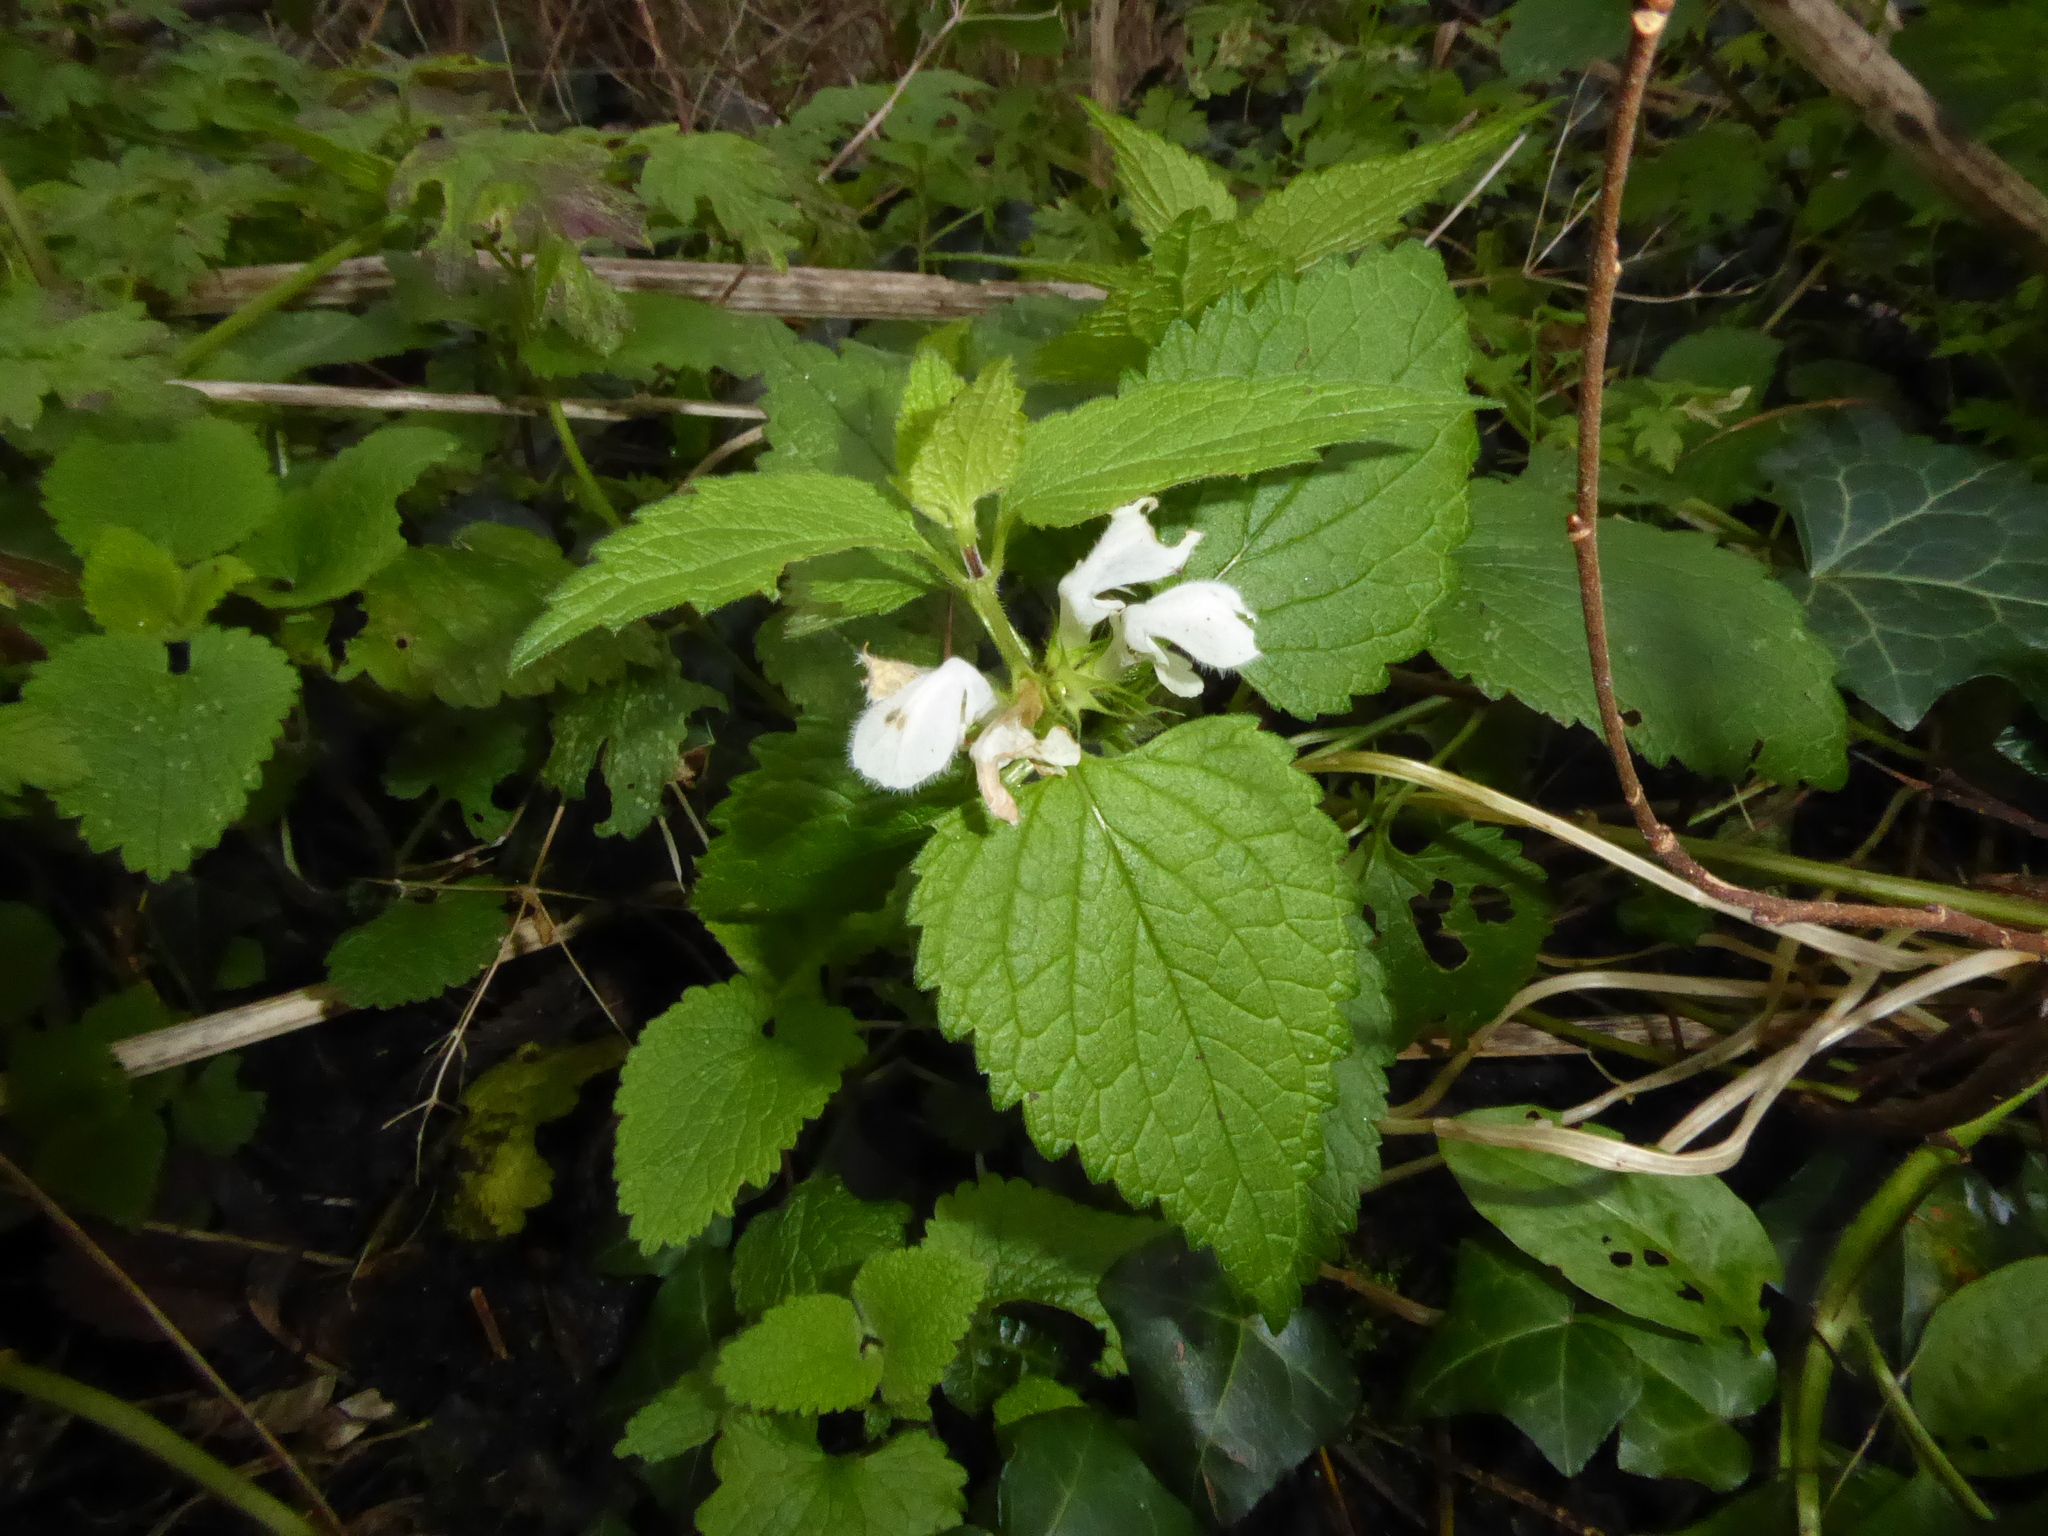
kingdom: Plantae
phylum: Tracheophyta
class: Magnoliopsida
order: Lamiales
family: Lamiaceae
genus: Lamium
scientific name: Lamium album
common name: White dead-nettle
